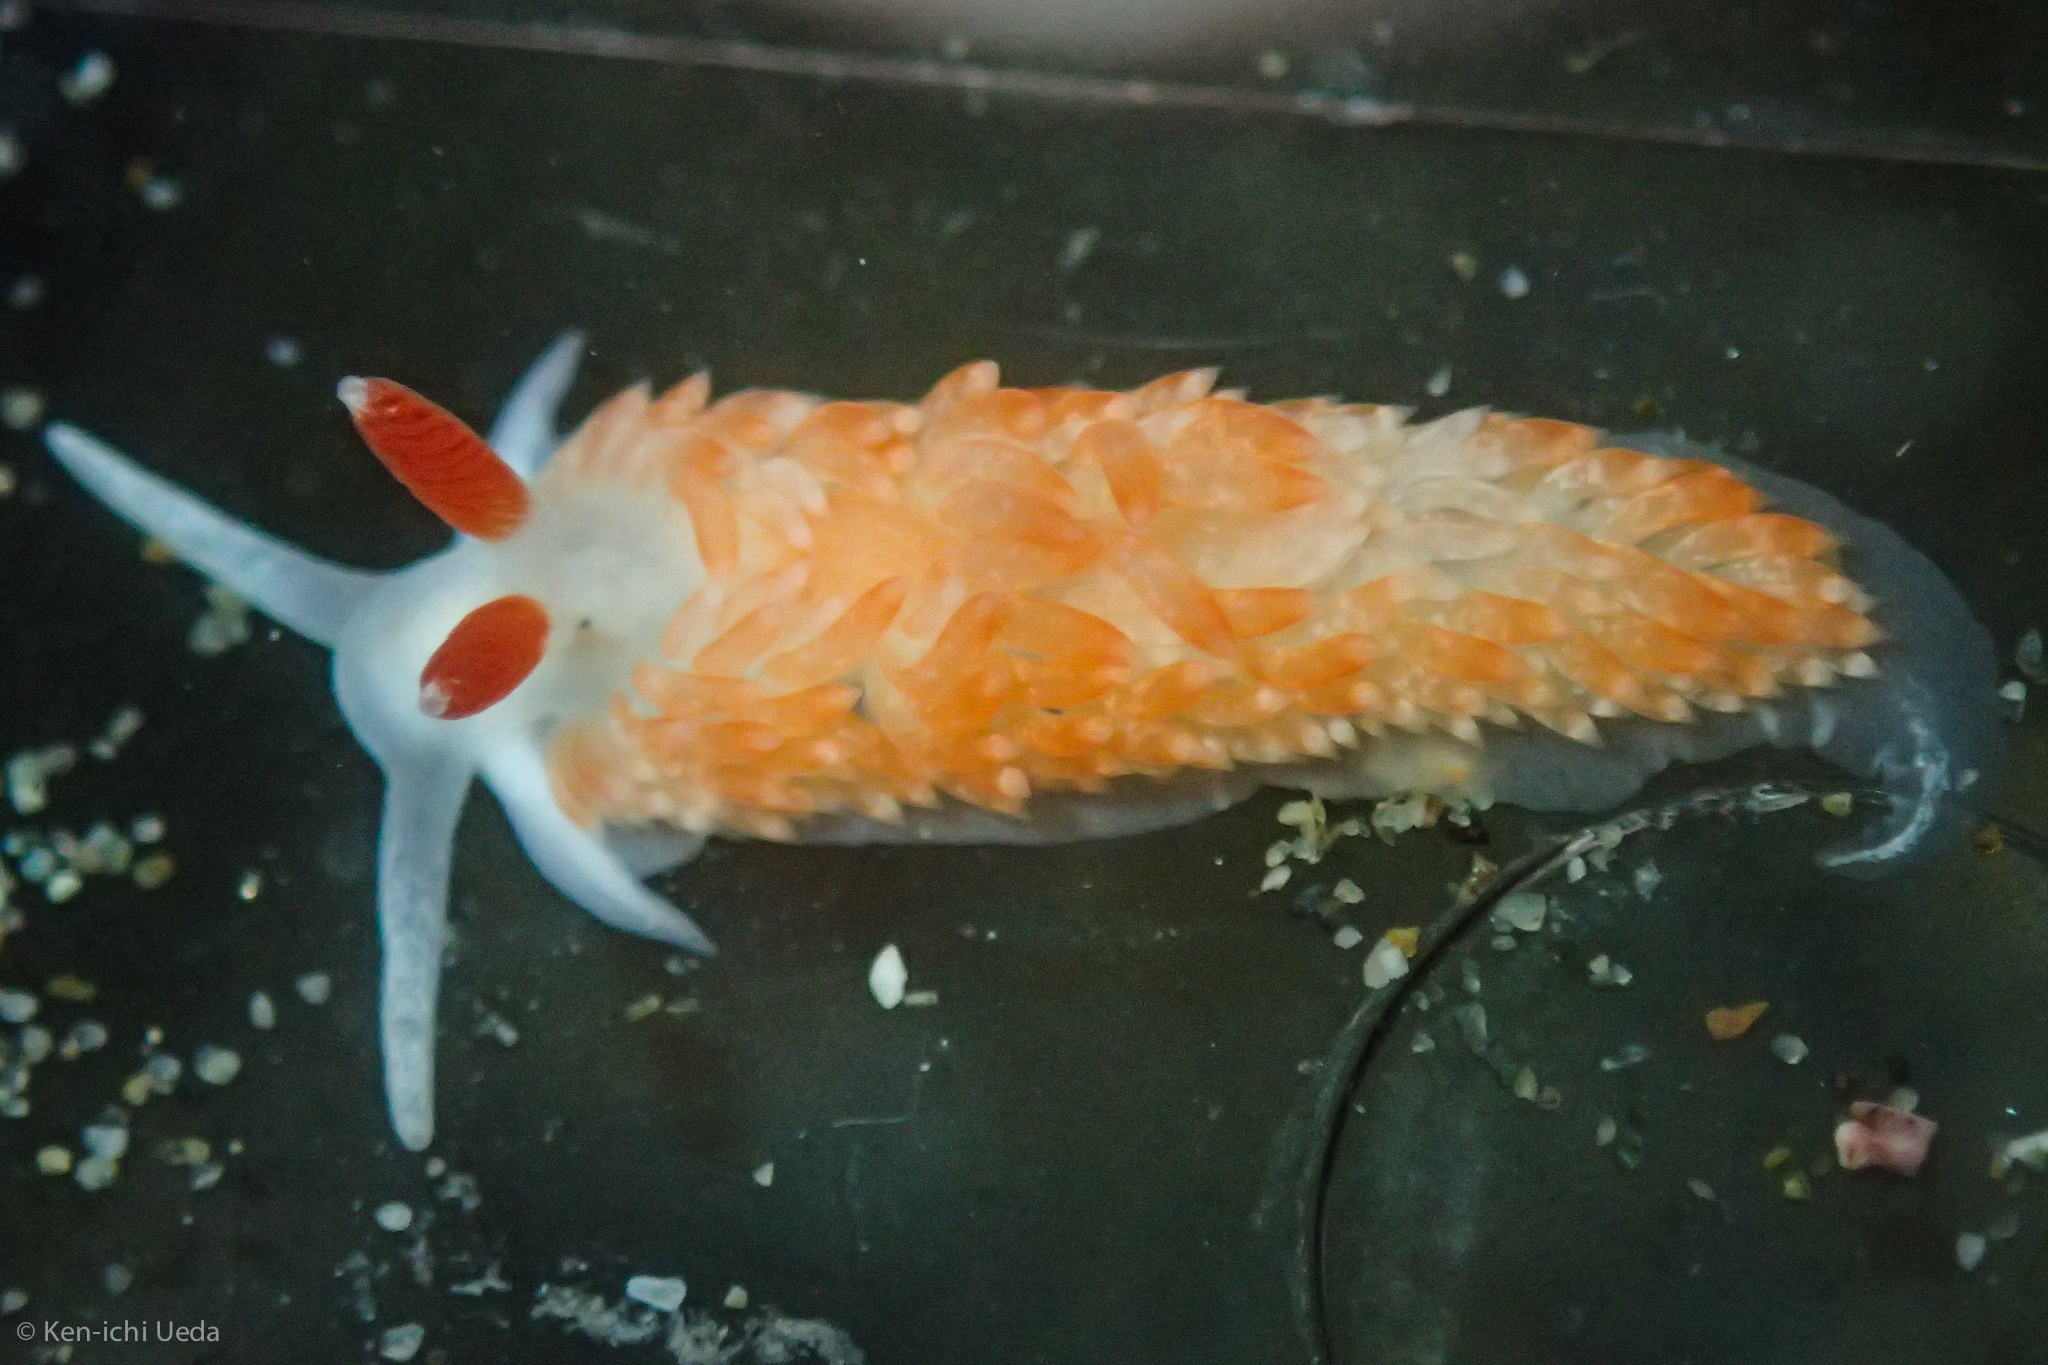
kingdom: Animalia
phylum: Mollusca
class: Gastropoda
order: Nudibranchia
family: Aeolidiidae
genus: Anteaeolidiella
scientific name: Anteaeolidiella oliviae
